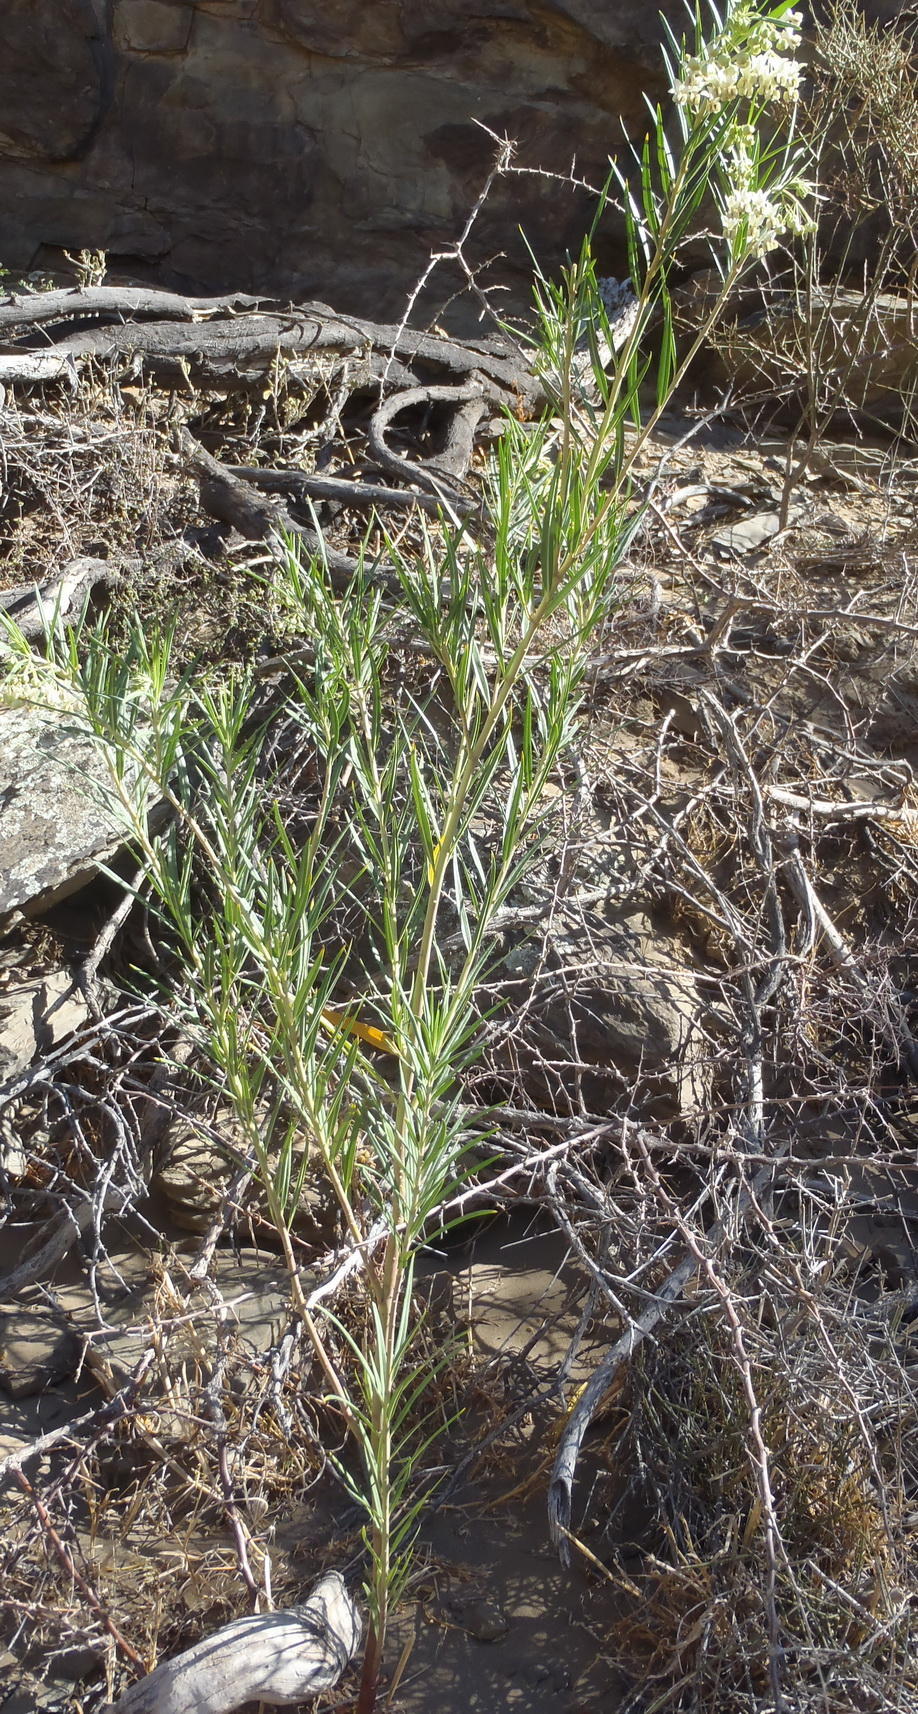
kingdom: Plantae
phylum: Tracheophyta
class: Magnoliopsida
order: Gentianales
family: Apocynaceae
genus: Gomphocarpus
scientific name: Gomphocarpus fruticosus
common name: Milkweed
